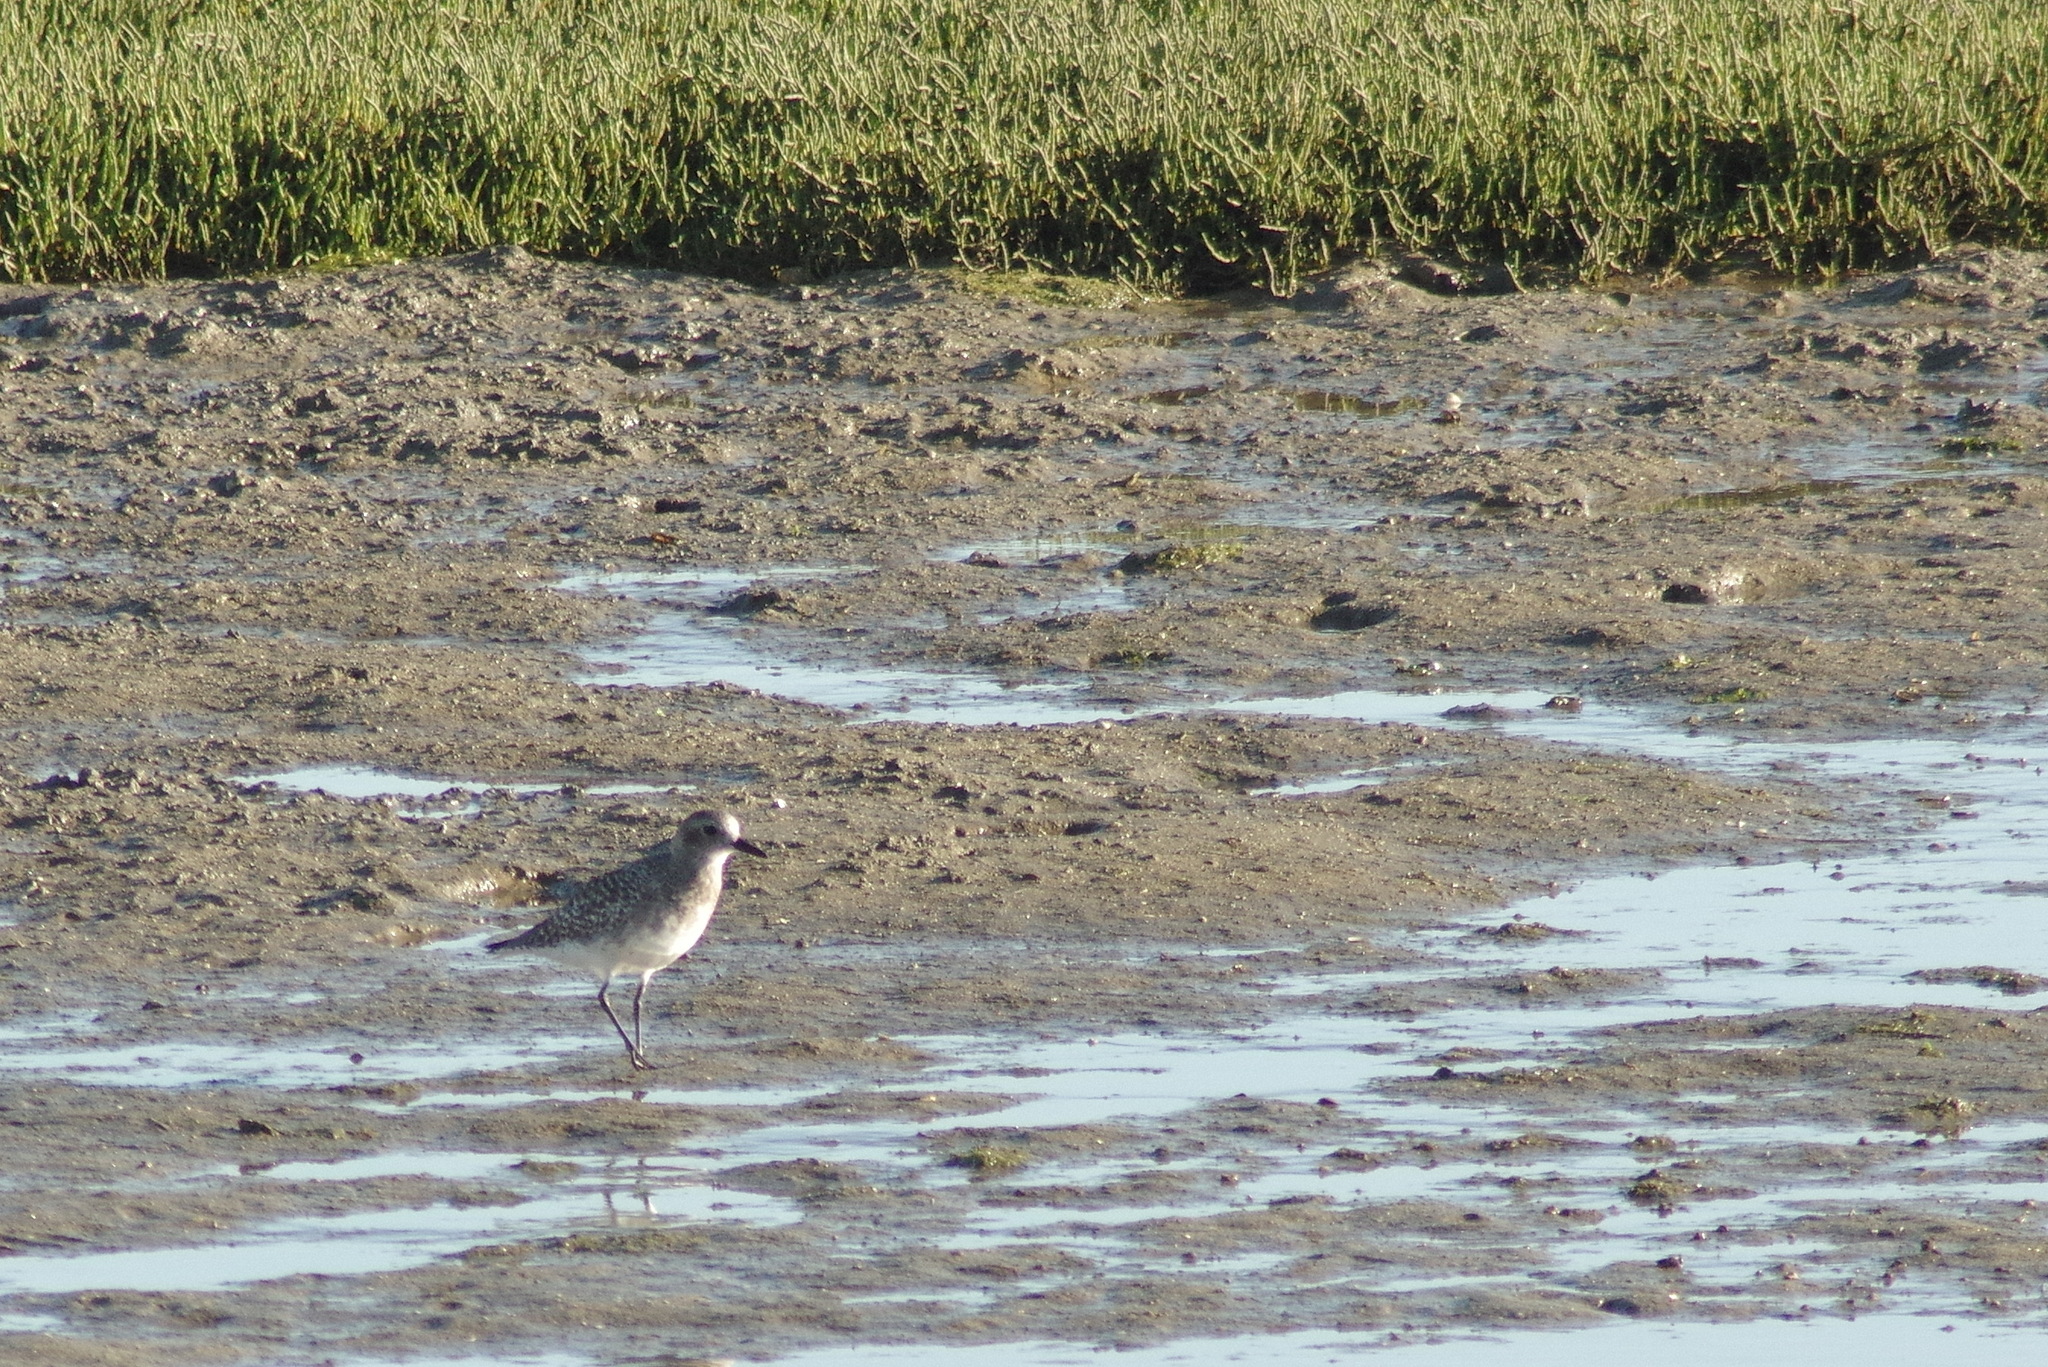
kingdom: Animalia
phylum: Chordata
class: Aves
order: Charadriiformes
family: Charadriidae
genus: Pluvialis
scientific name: Pluvialis squatarola
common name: Grey plover
